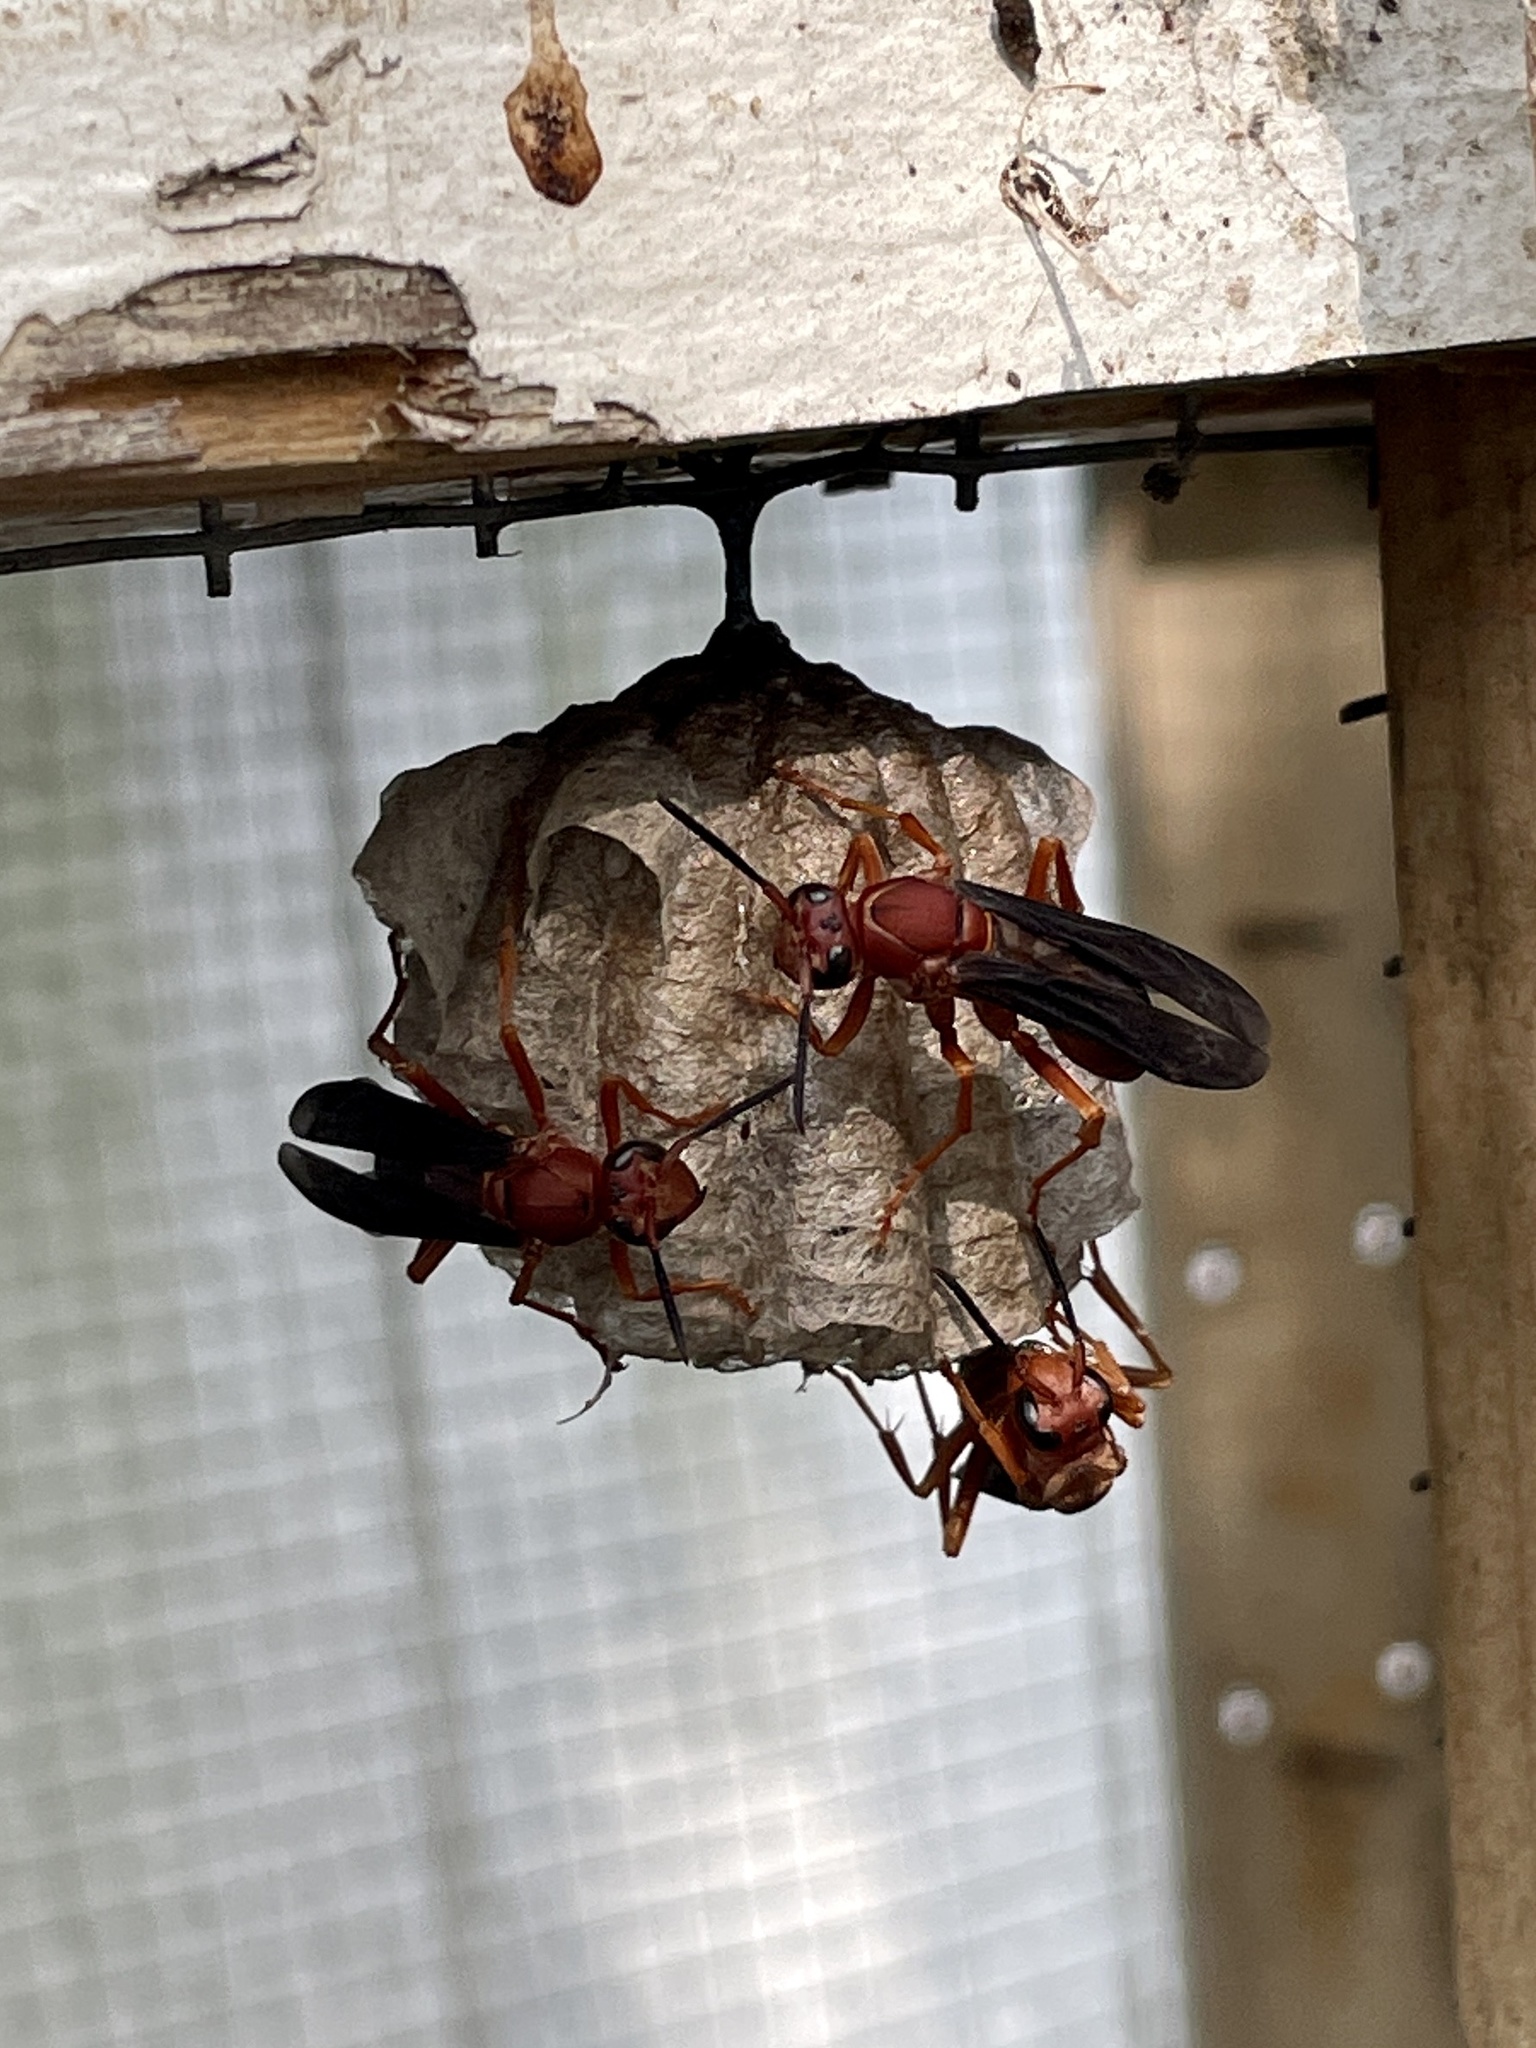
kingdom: Animalia
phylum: Arthropoda
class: Insecta
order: Hymenoptera
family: Vespidae
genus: Fuscopolistes
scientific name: Fuscopolistes
